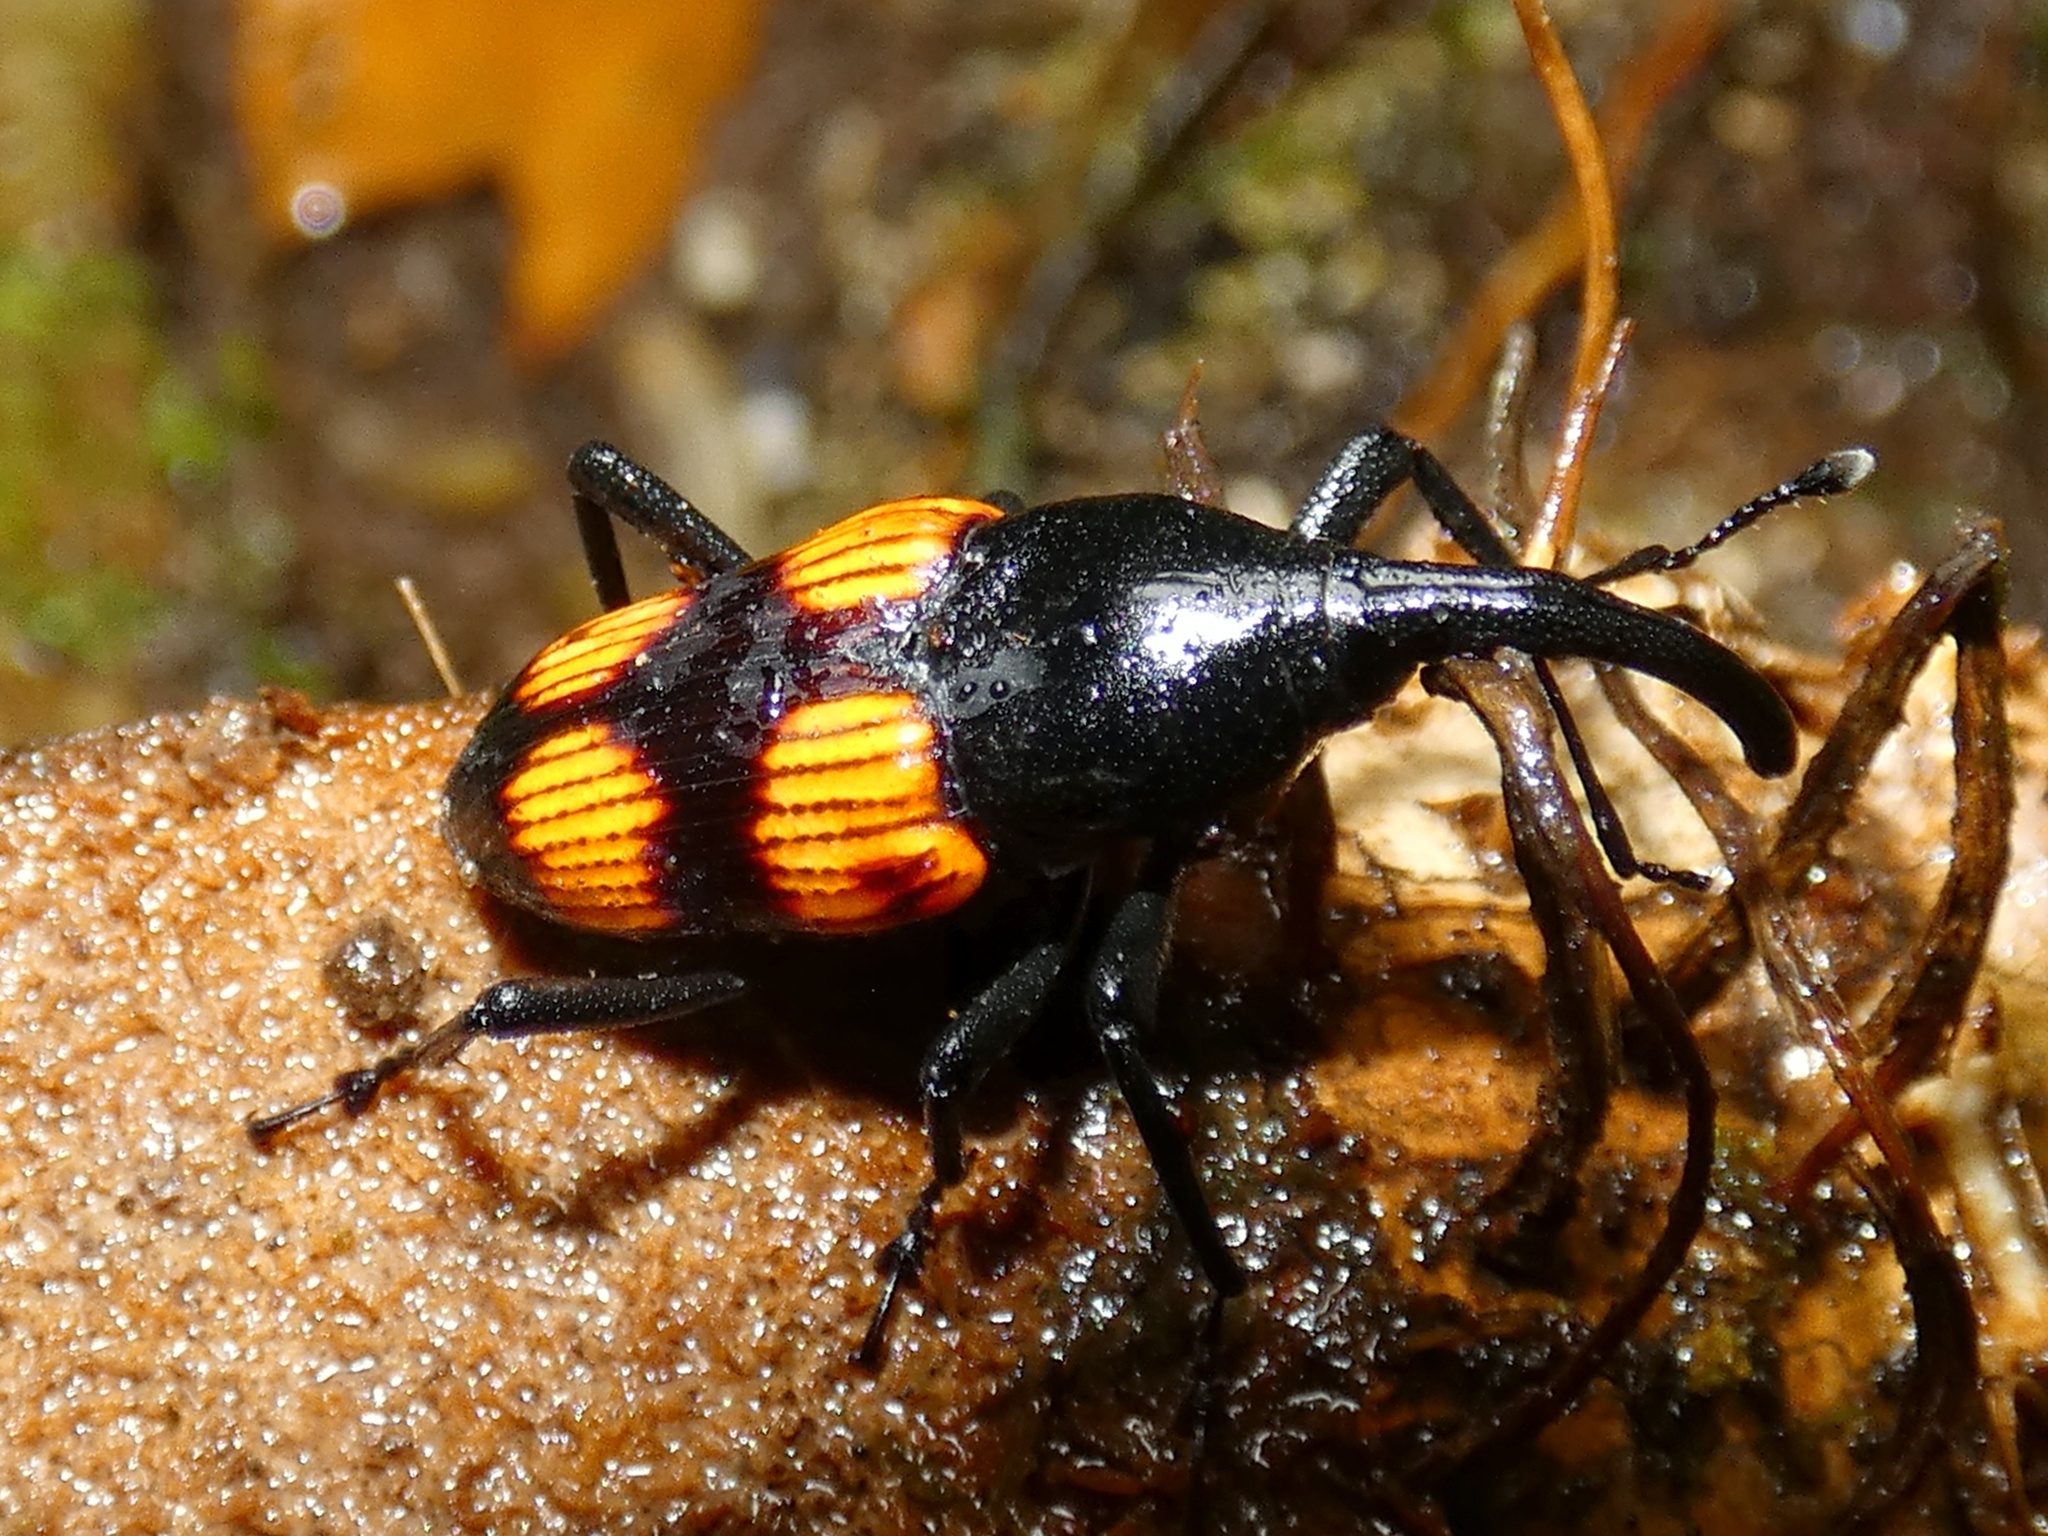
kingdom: Animalia
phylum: Arthropoda
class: Insecta
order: Coleoptera
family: Dryophthoridae
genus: Cactophagus
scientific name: Cactophagus rubrovariegatus
